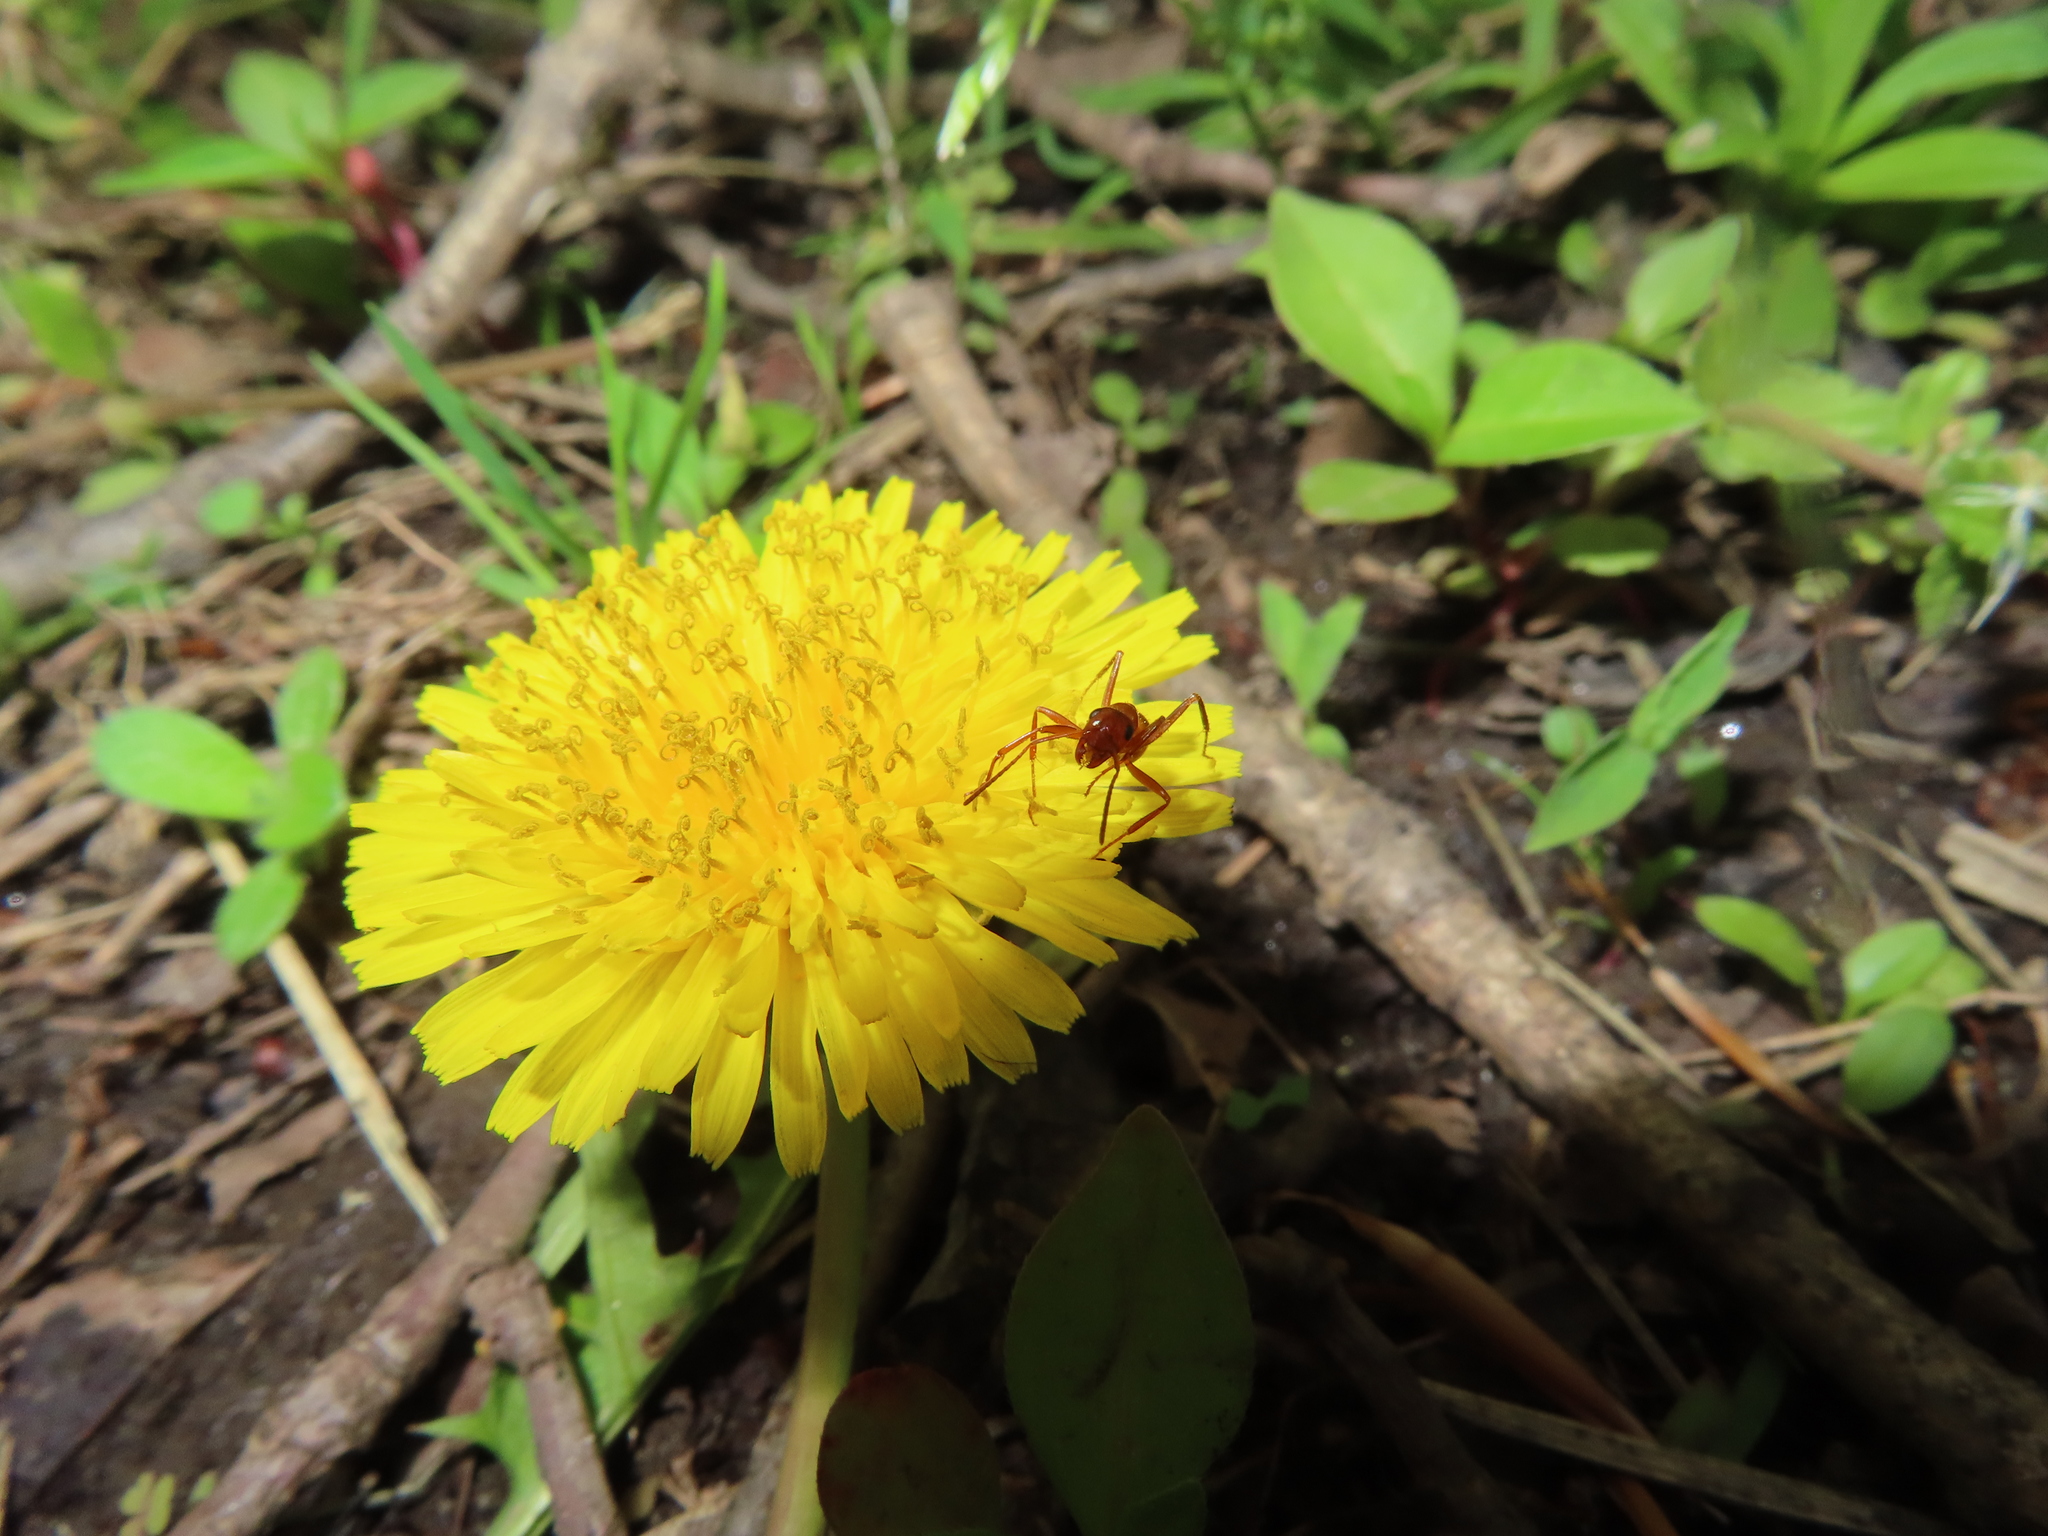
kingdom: Plantae
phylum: Tracheophyta
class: Magnoliopsida
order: Asterales
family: Asteraceae
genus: Taraxacum
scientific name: Taraxacum
